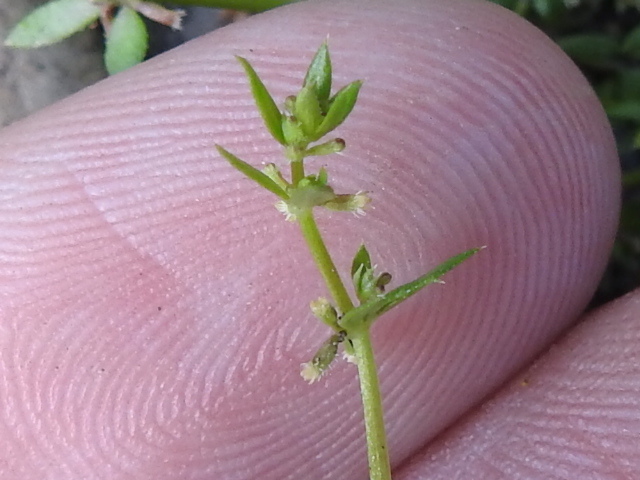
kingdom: Plantae
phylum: Tracheophyta
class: Magnoliopsida
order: Gentianales
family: Rubiaceae
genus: Galium
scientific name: Galium murale
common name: Yellow wall bedstraw
